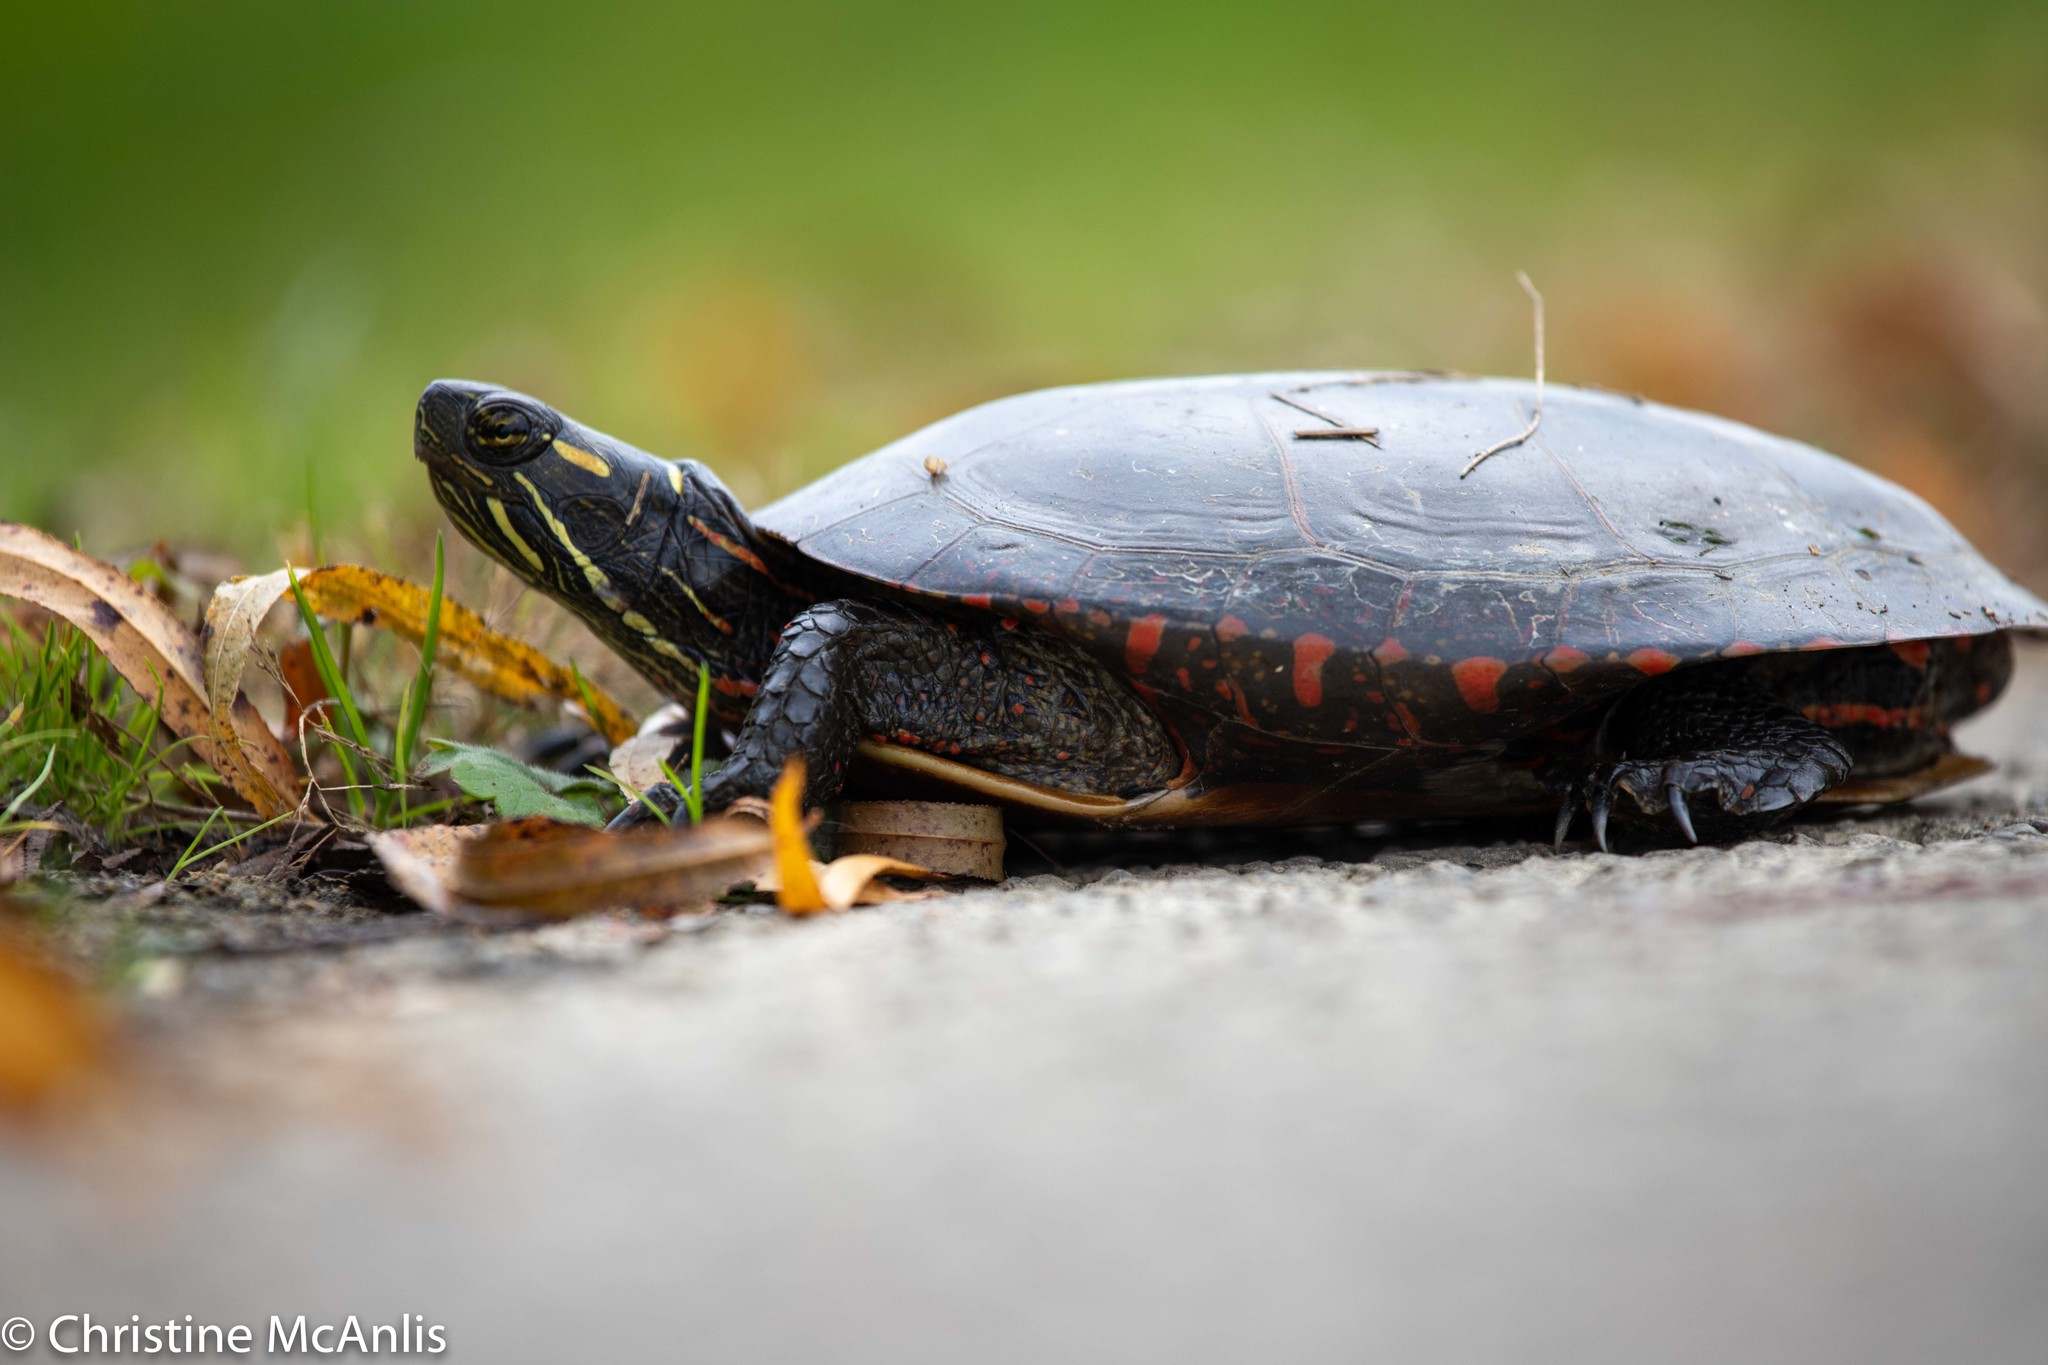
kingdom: Animalia
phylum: Chordata
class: Testudines
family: Emydidae
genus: Chrysemys
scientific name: Chrysemys picta
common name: Painted turtle
